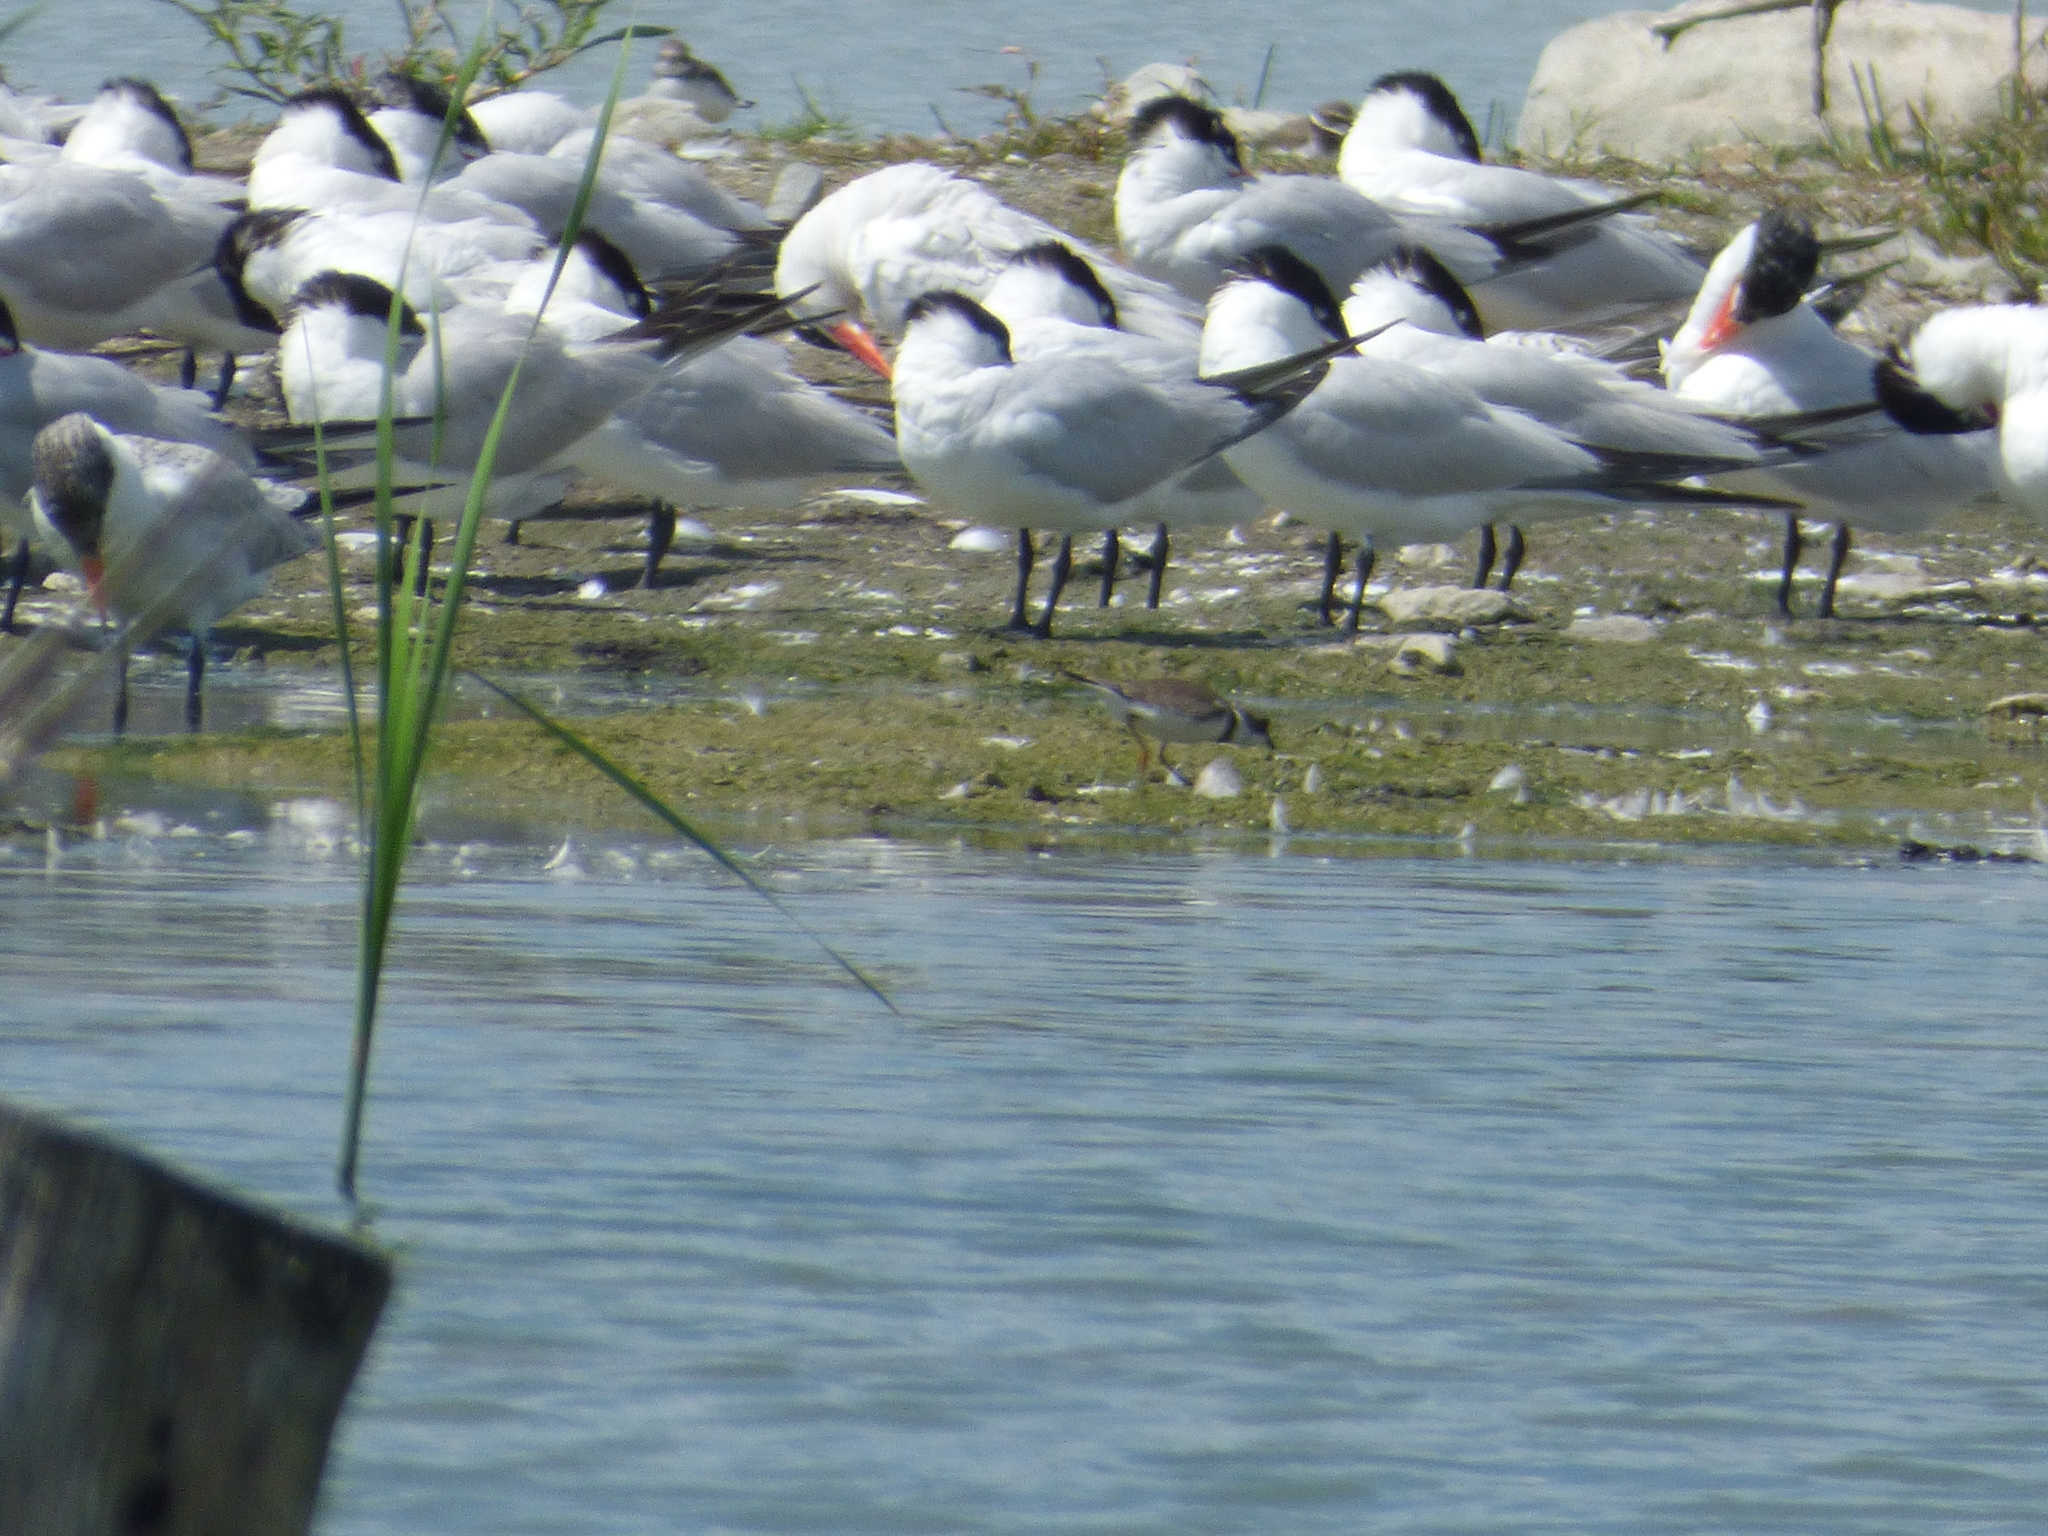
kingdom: Animalia
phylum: Chordata
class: Aves
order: Charadriiformes
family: Laridae
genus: Hydroprogne
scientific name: Hydroprogne caspia
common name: Caspian tern
